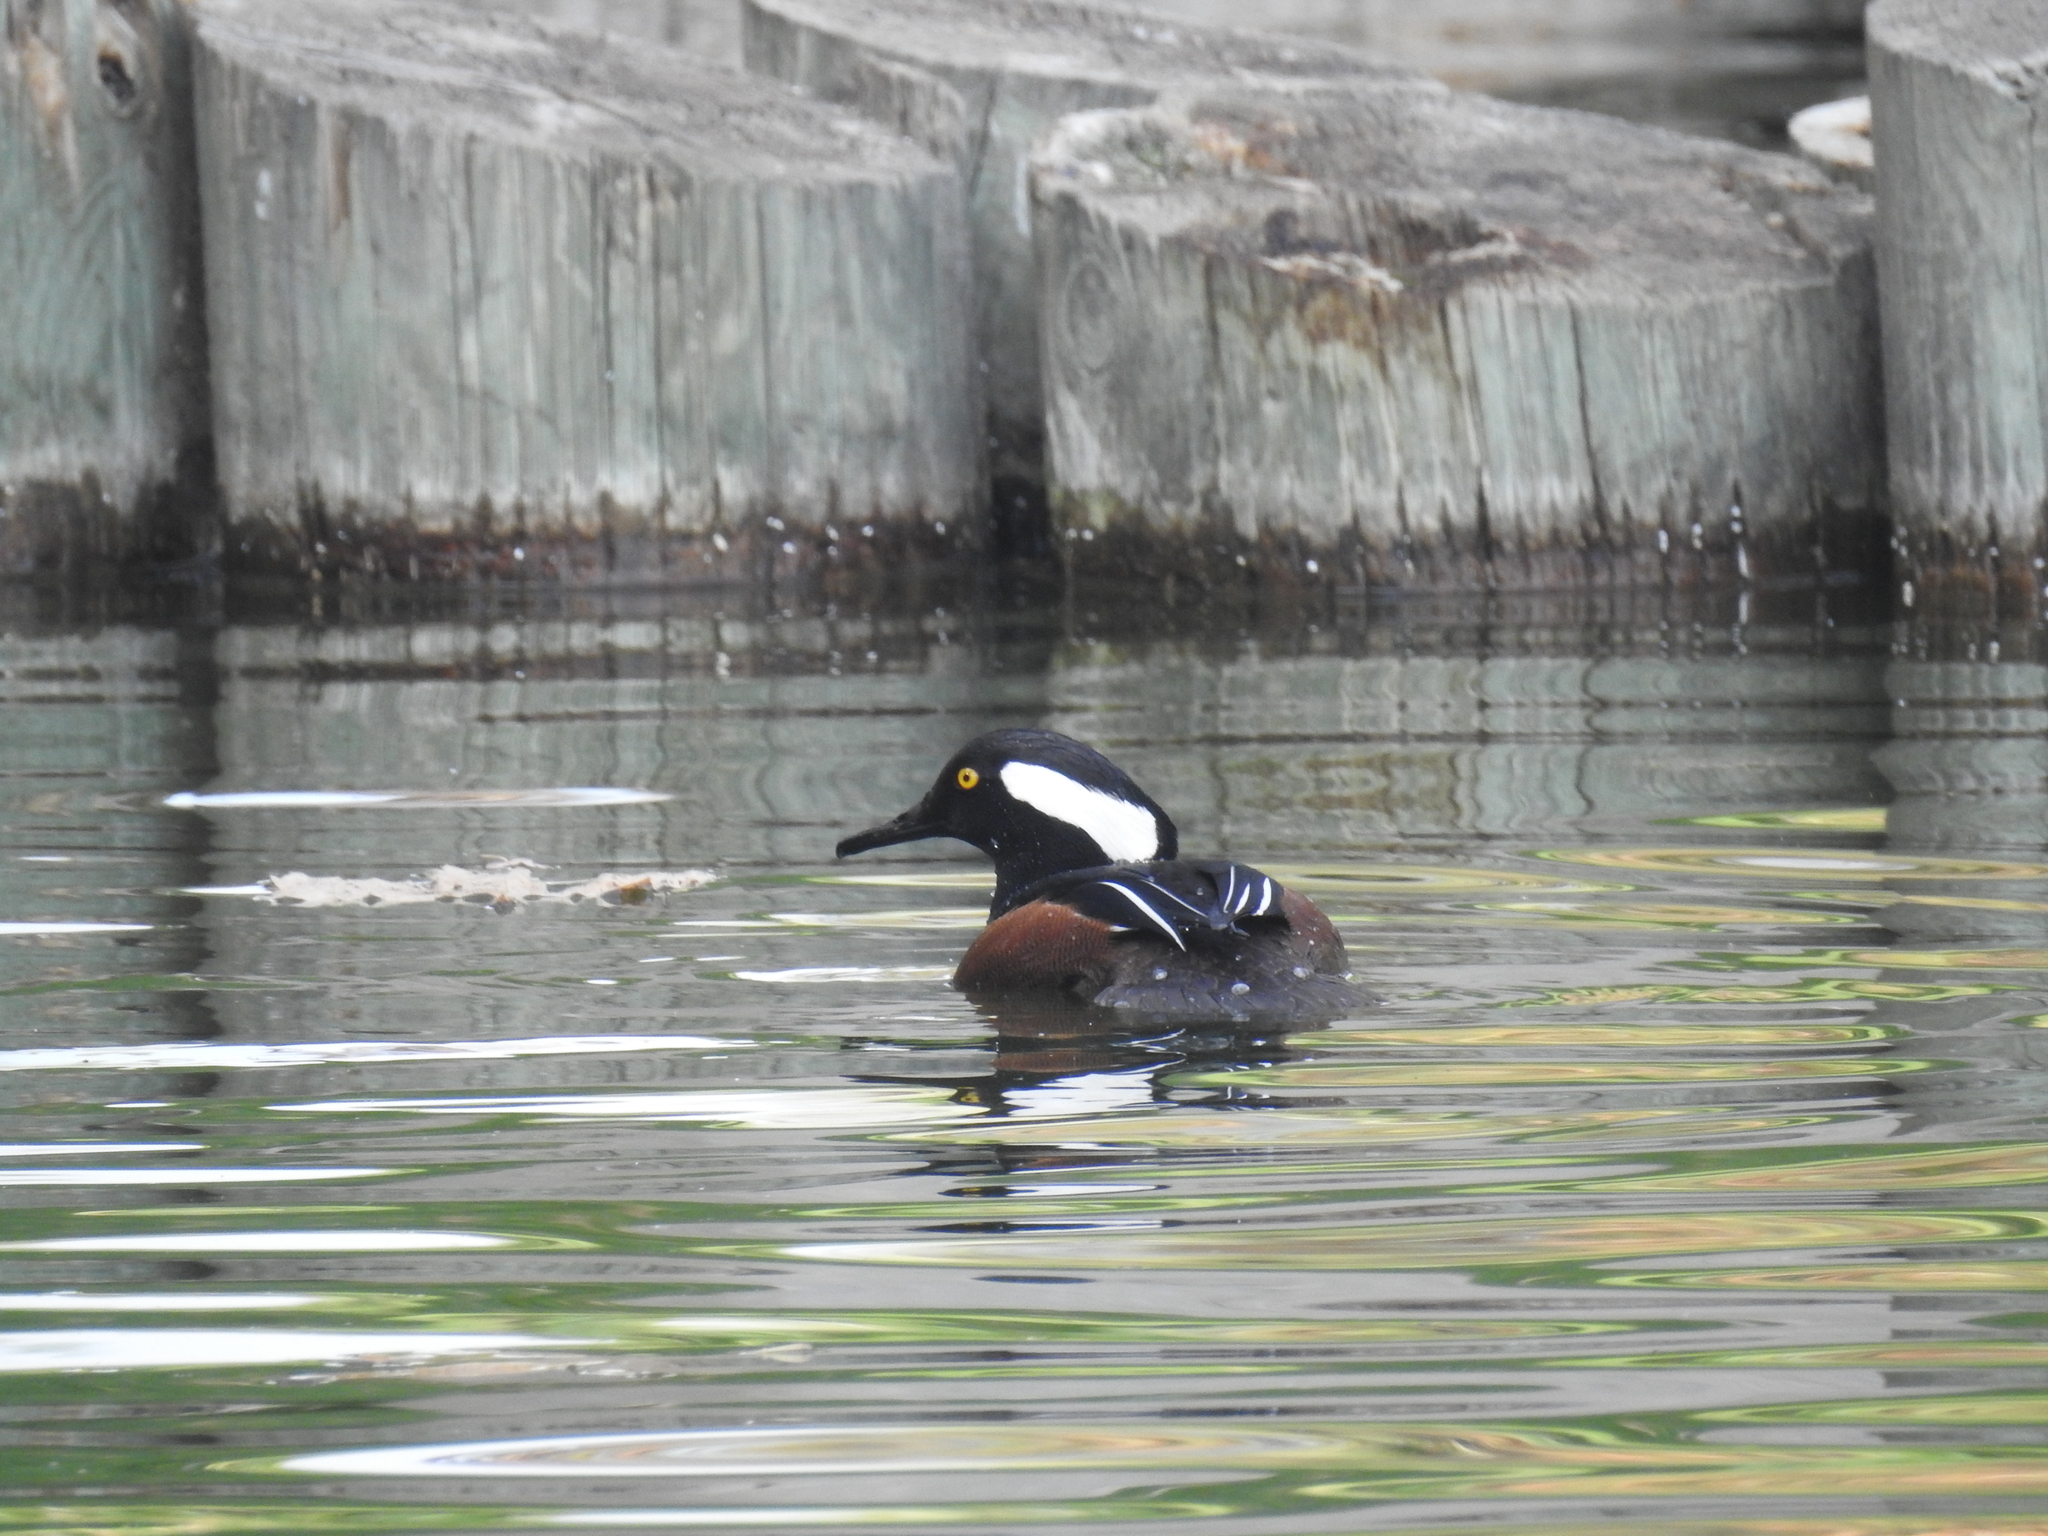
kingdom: Animalia
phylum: Chordata
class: Aves
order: Anseriformes
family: Anatidae
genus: Lophodytes
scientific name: Lophodytes cucullatus
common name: Hooded merganser
